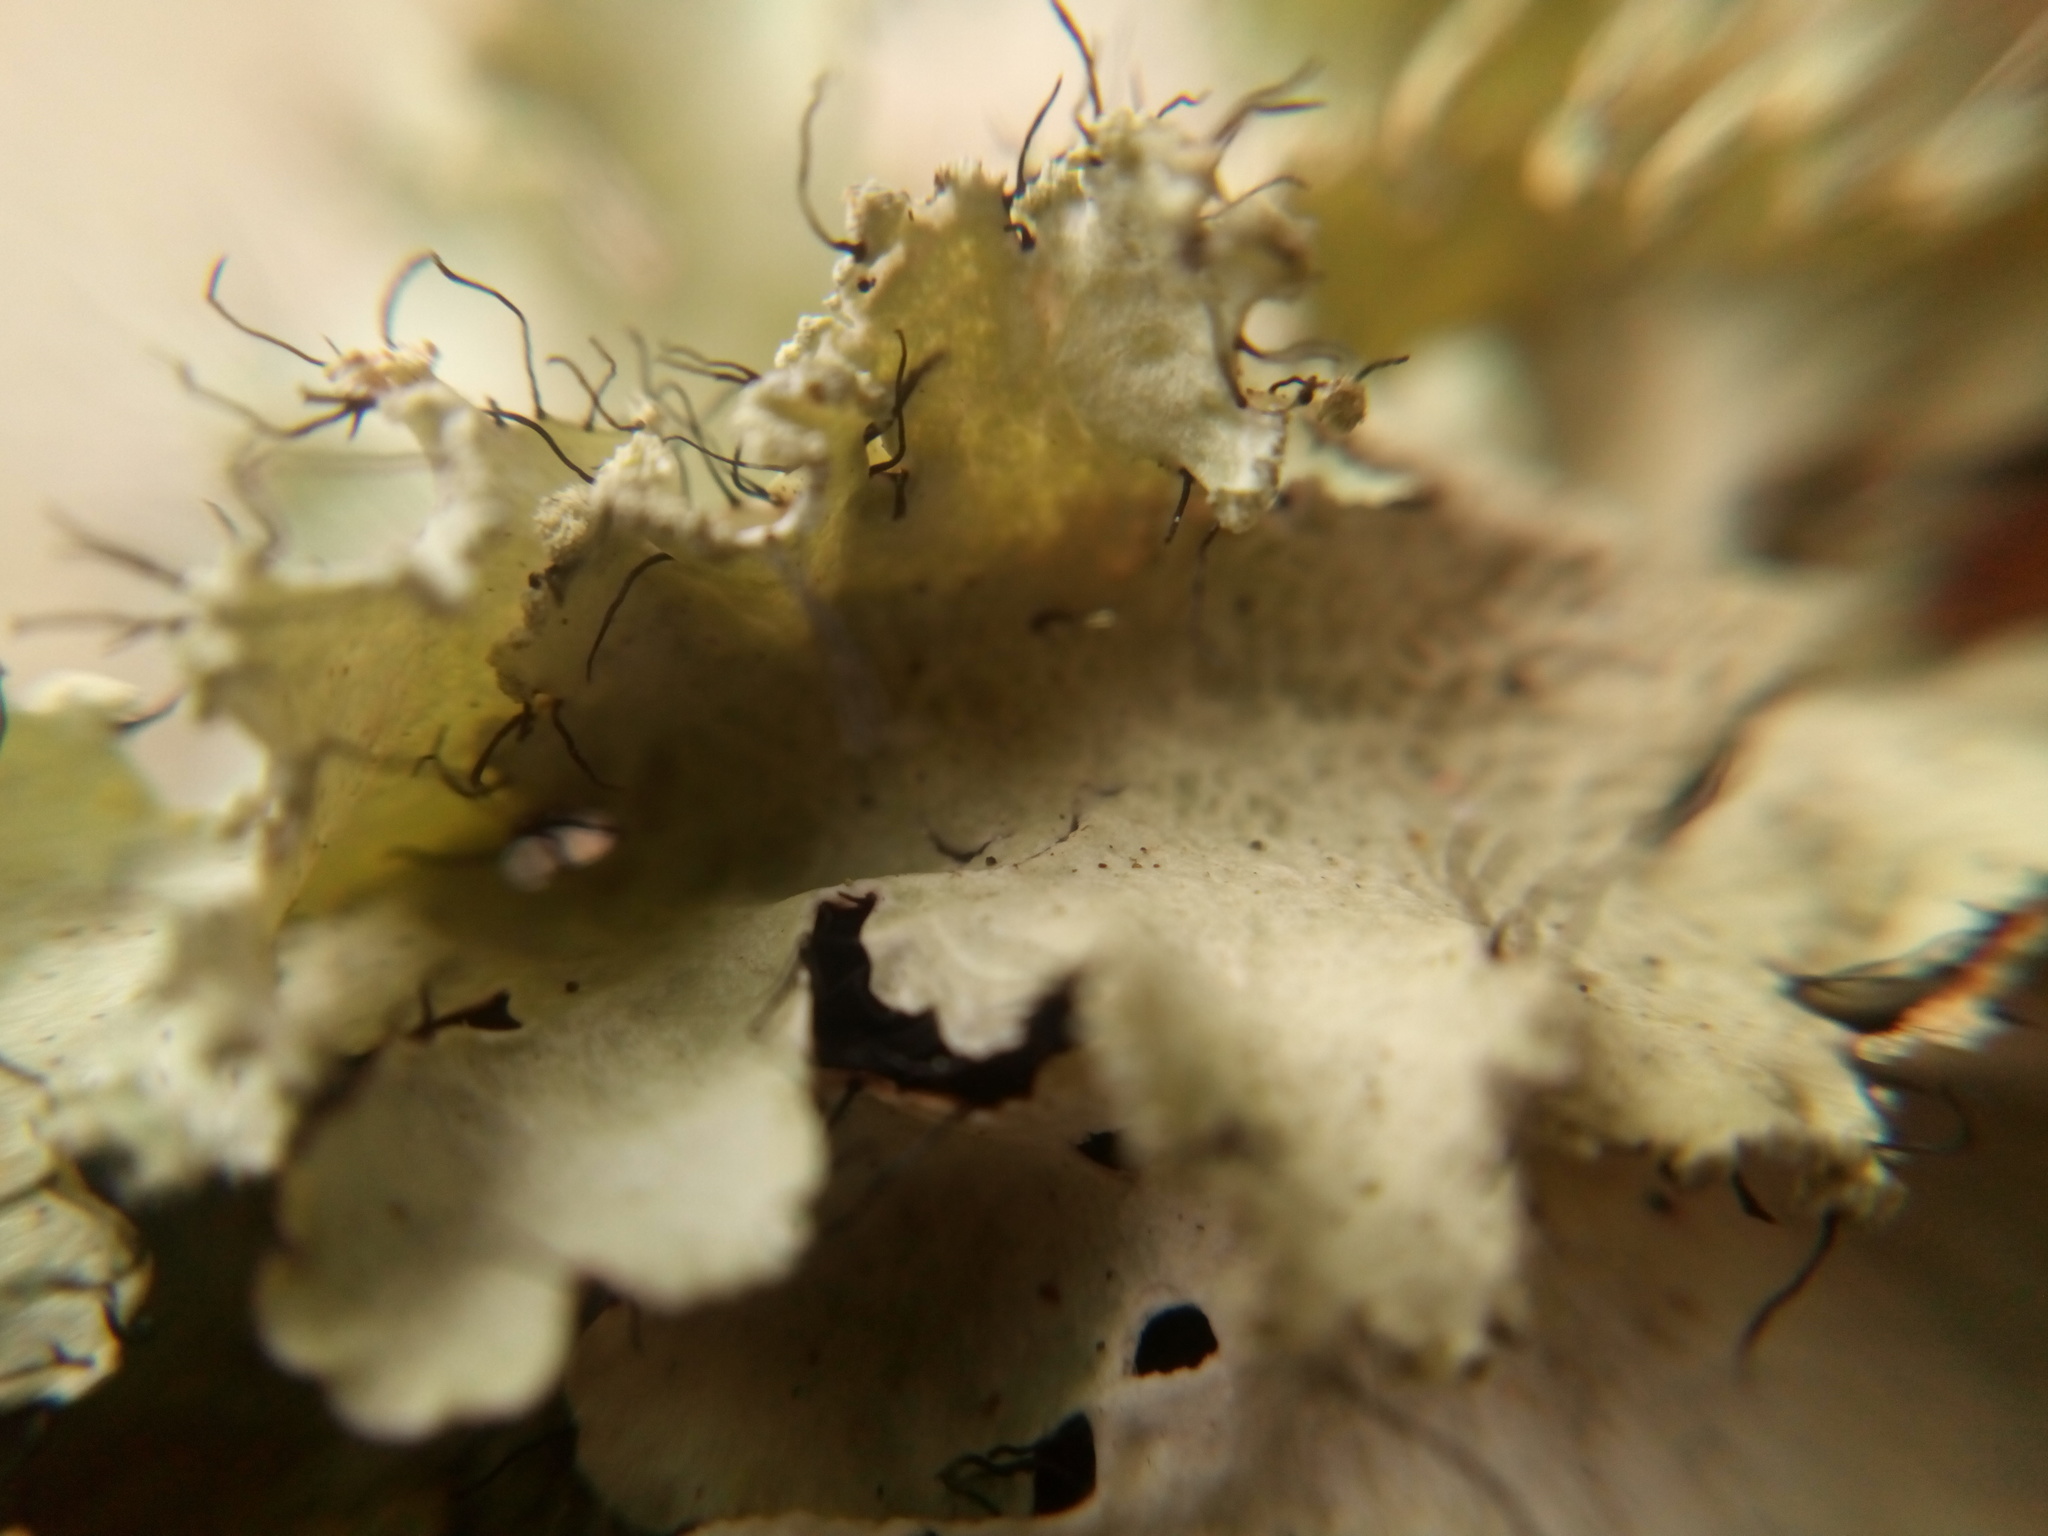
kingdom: Fungi
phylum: Ascomycota
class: Lecanoromycetes
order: Lecanorales
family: Parmeliaceae
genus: Parmotrema
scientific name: Parmotrema hypotropum
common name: Powdered ruffle lichen
